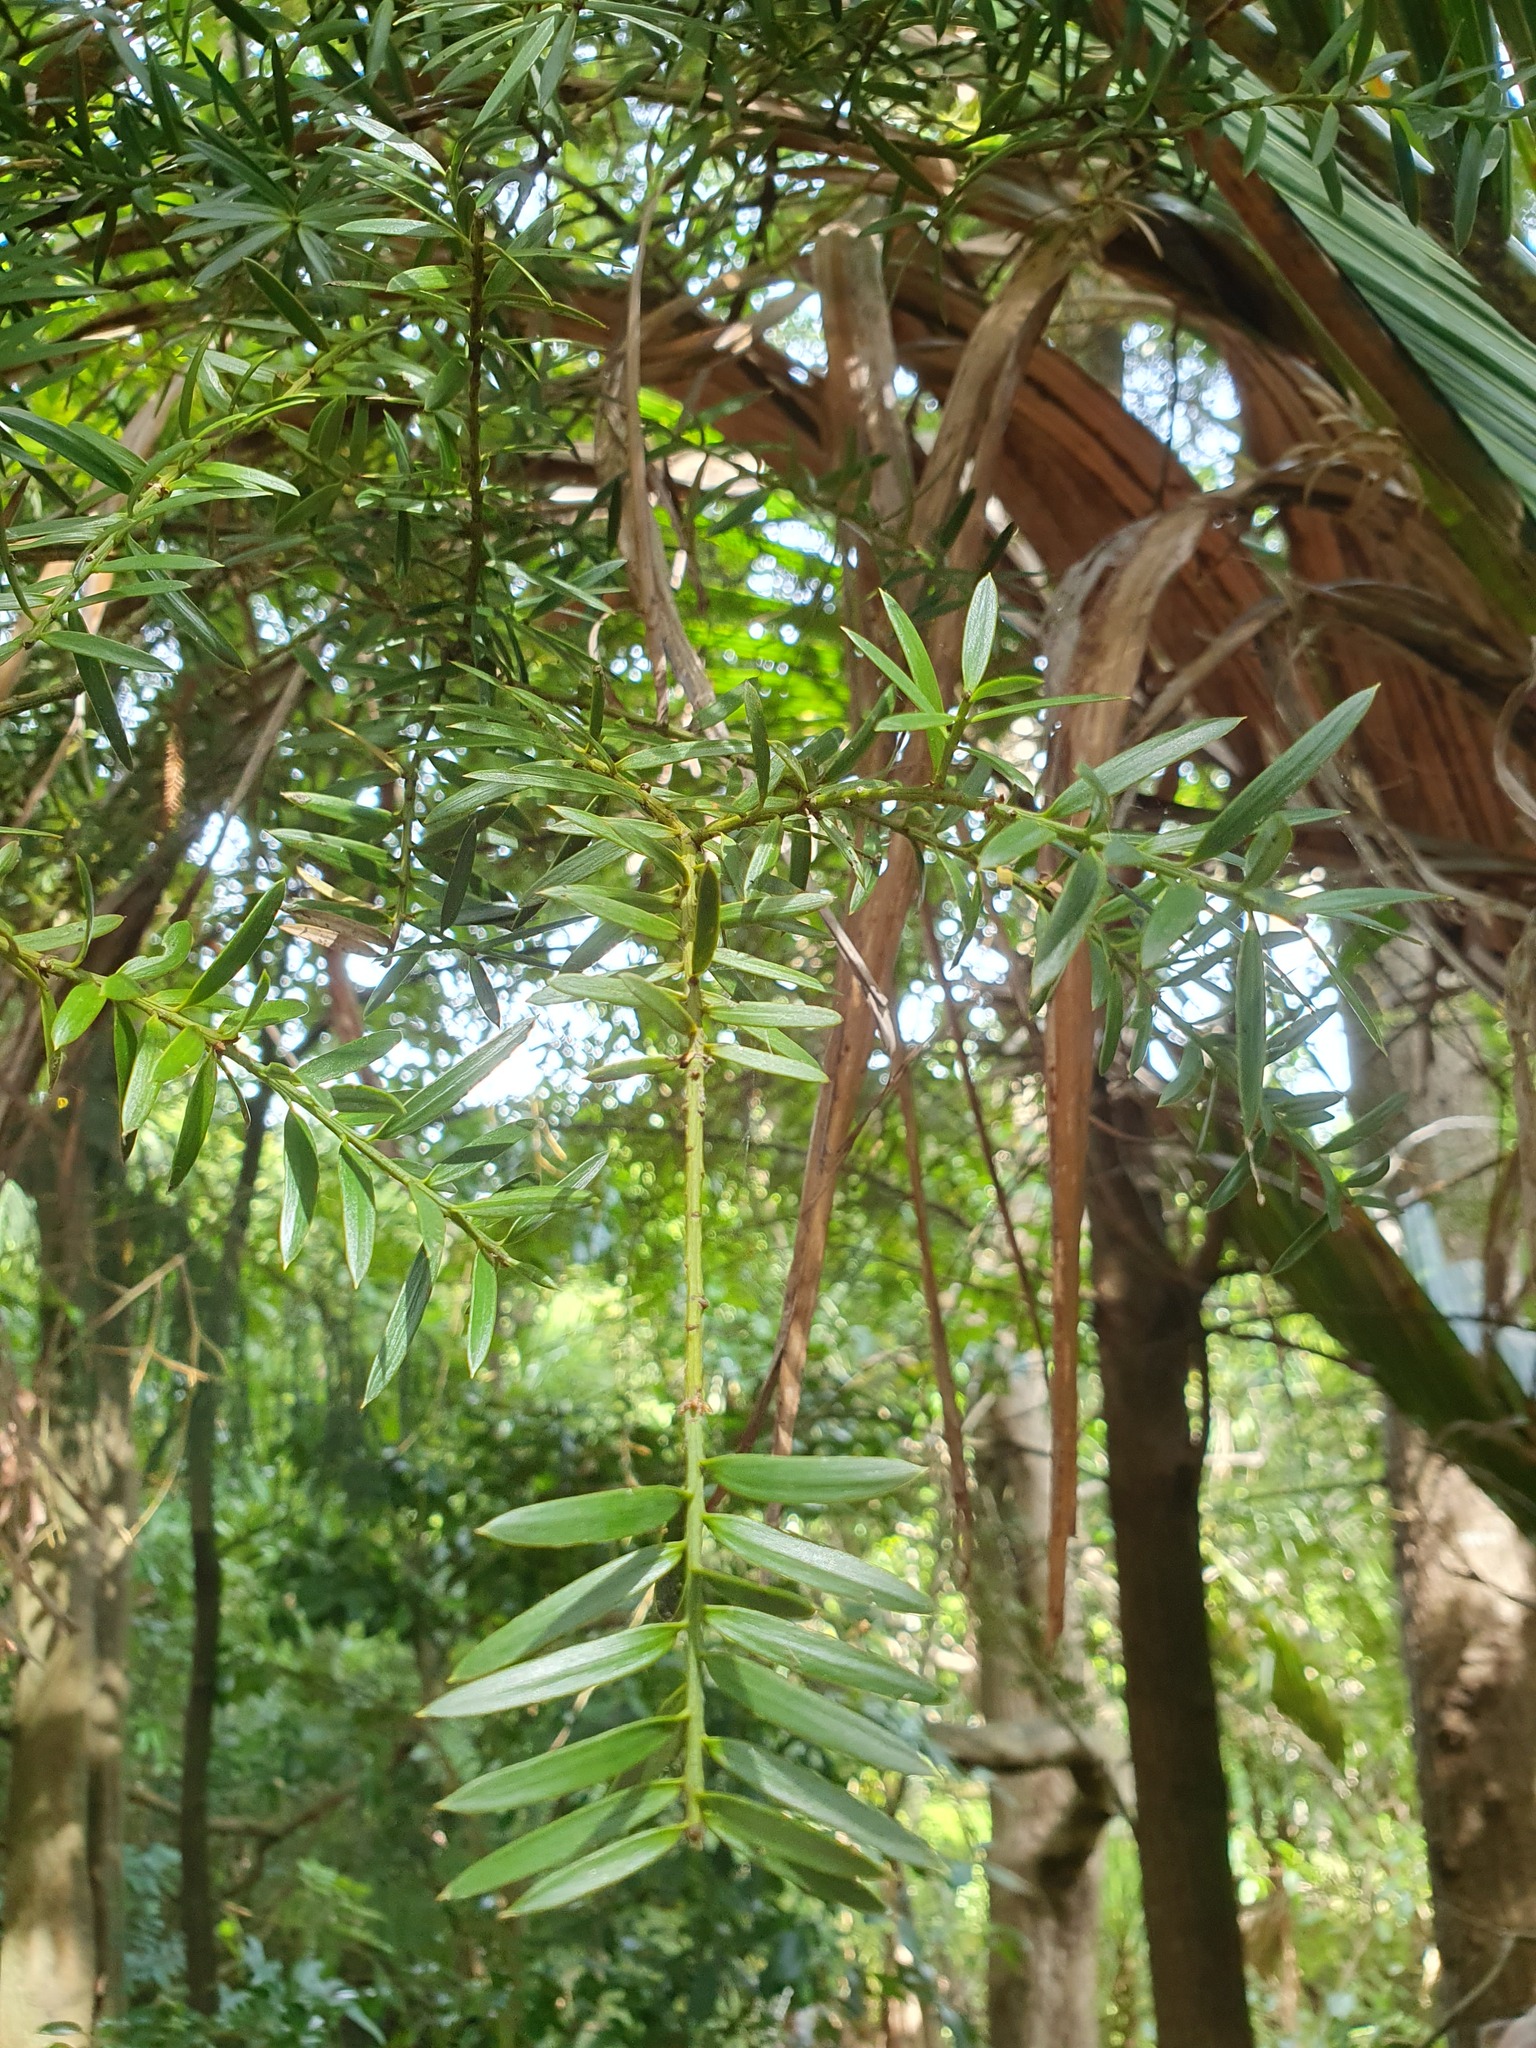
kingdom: Plantae
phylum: Tracheophyta
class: Pinopsida
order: Pinales
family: Podocarpaceae
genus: Podocarpus
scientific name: Podocarpus totara
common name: Totara
